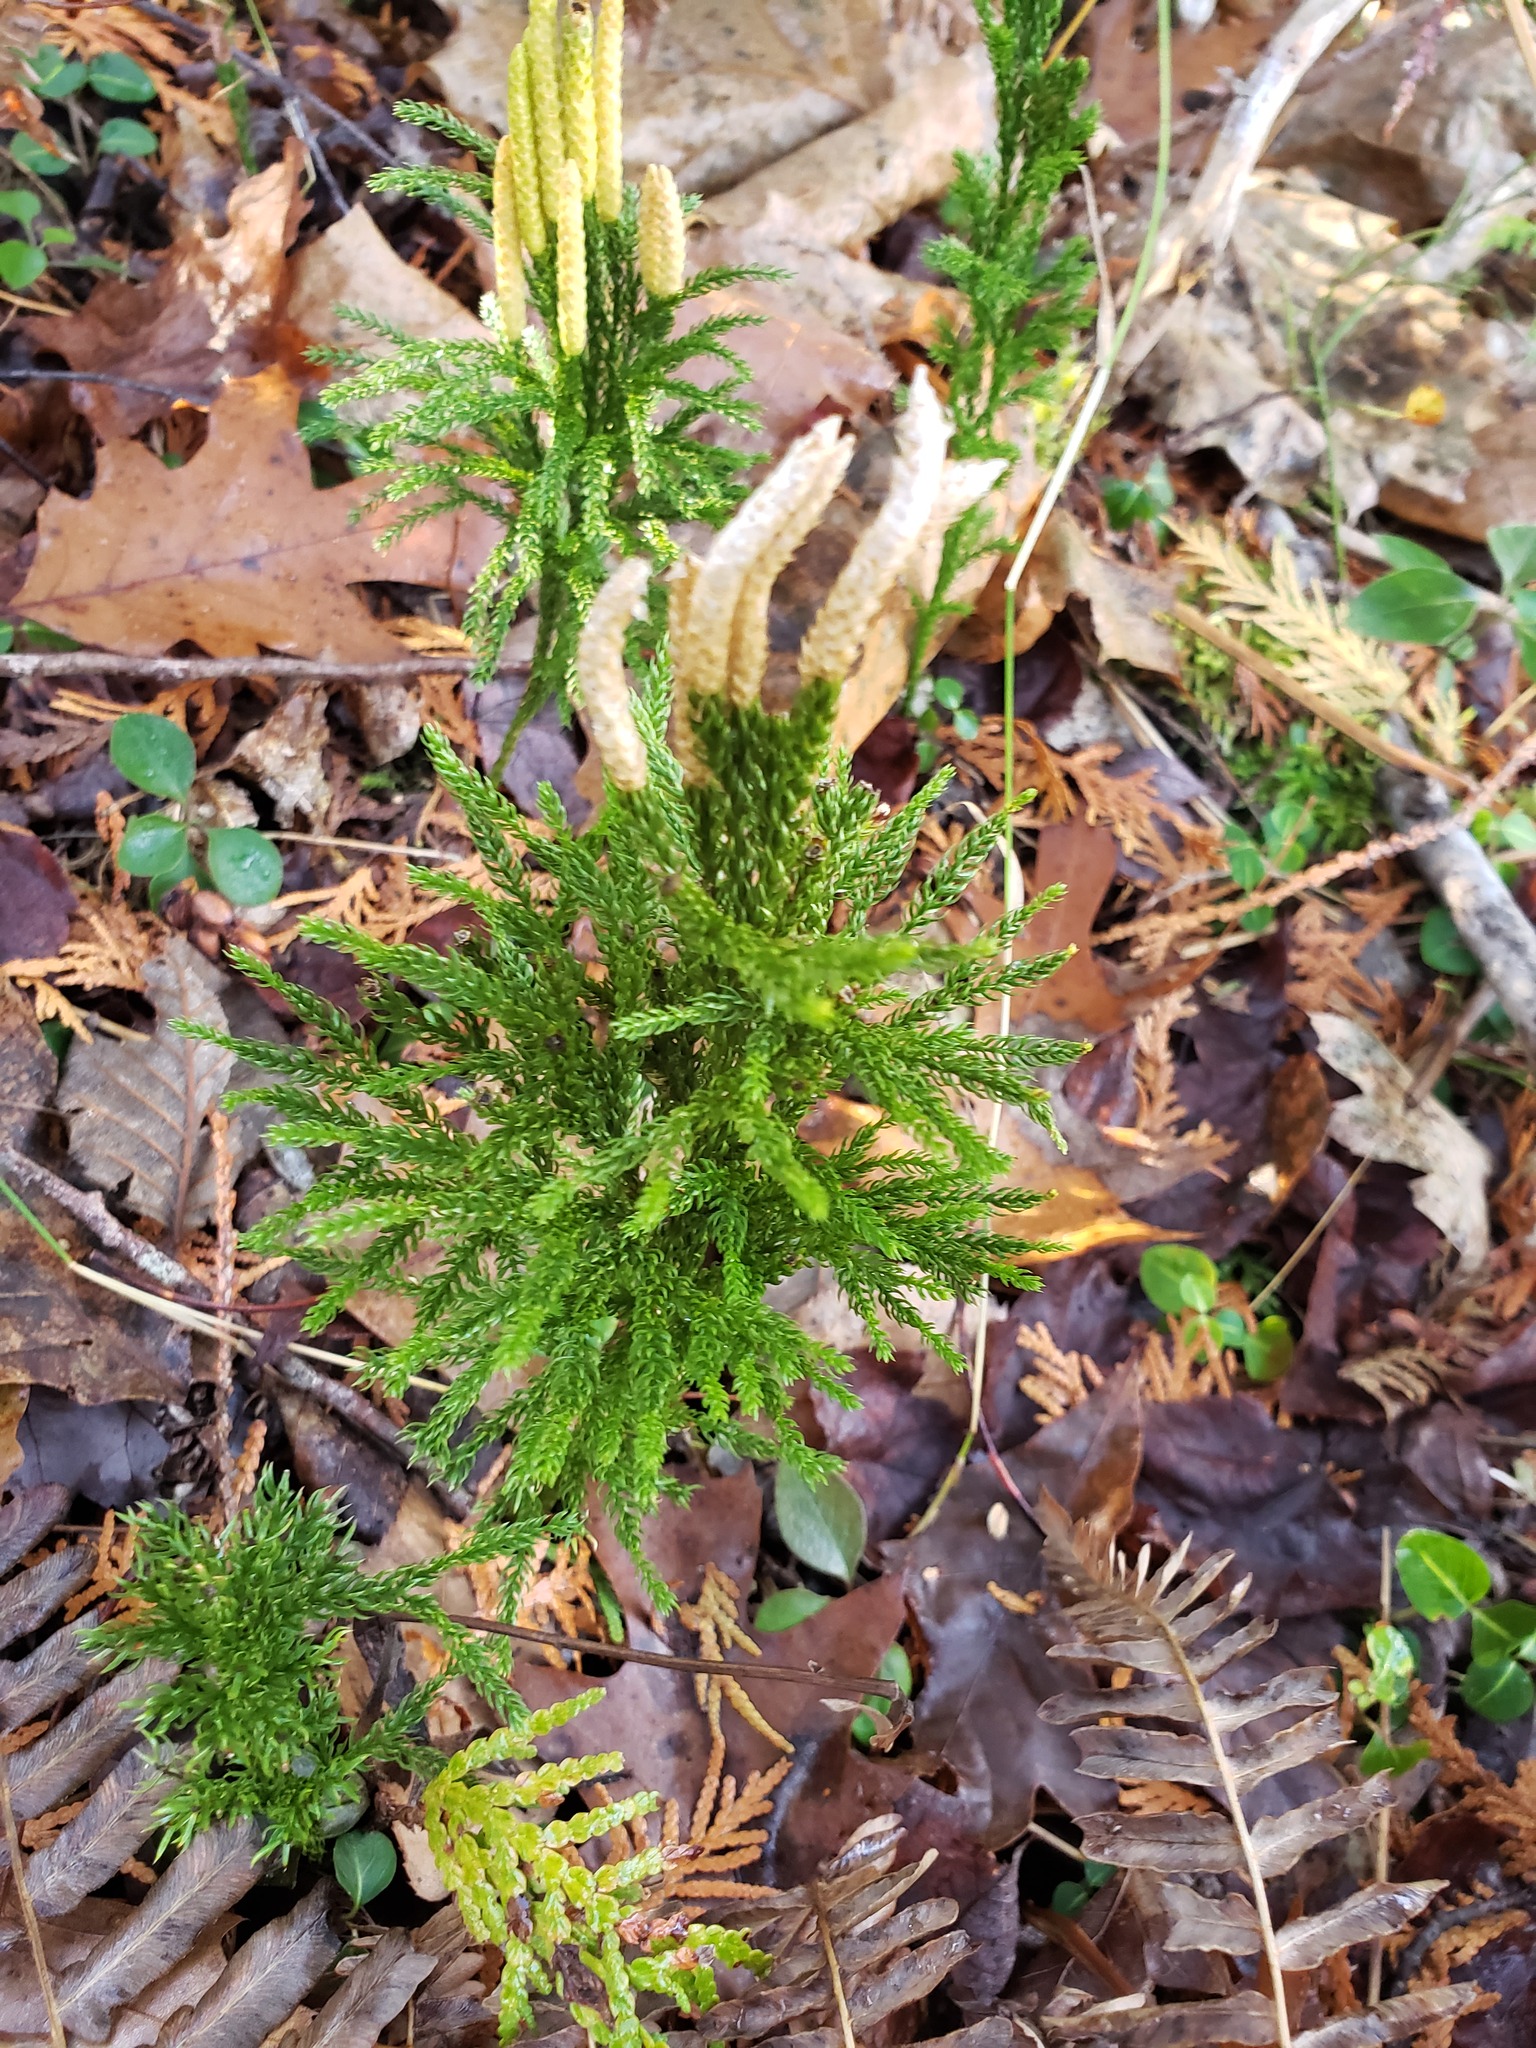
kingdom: Plantae
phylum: Tracheophyta
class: Lycopodiopsida
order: Lycopodiales
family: Lycopodiaceae
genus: Dendrolycopodium
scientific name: Dendrolycopodium hickeyi
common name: Hickey's clubmoss
